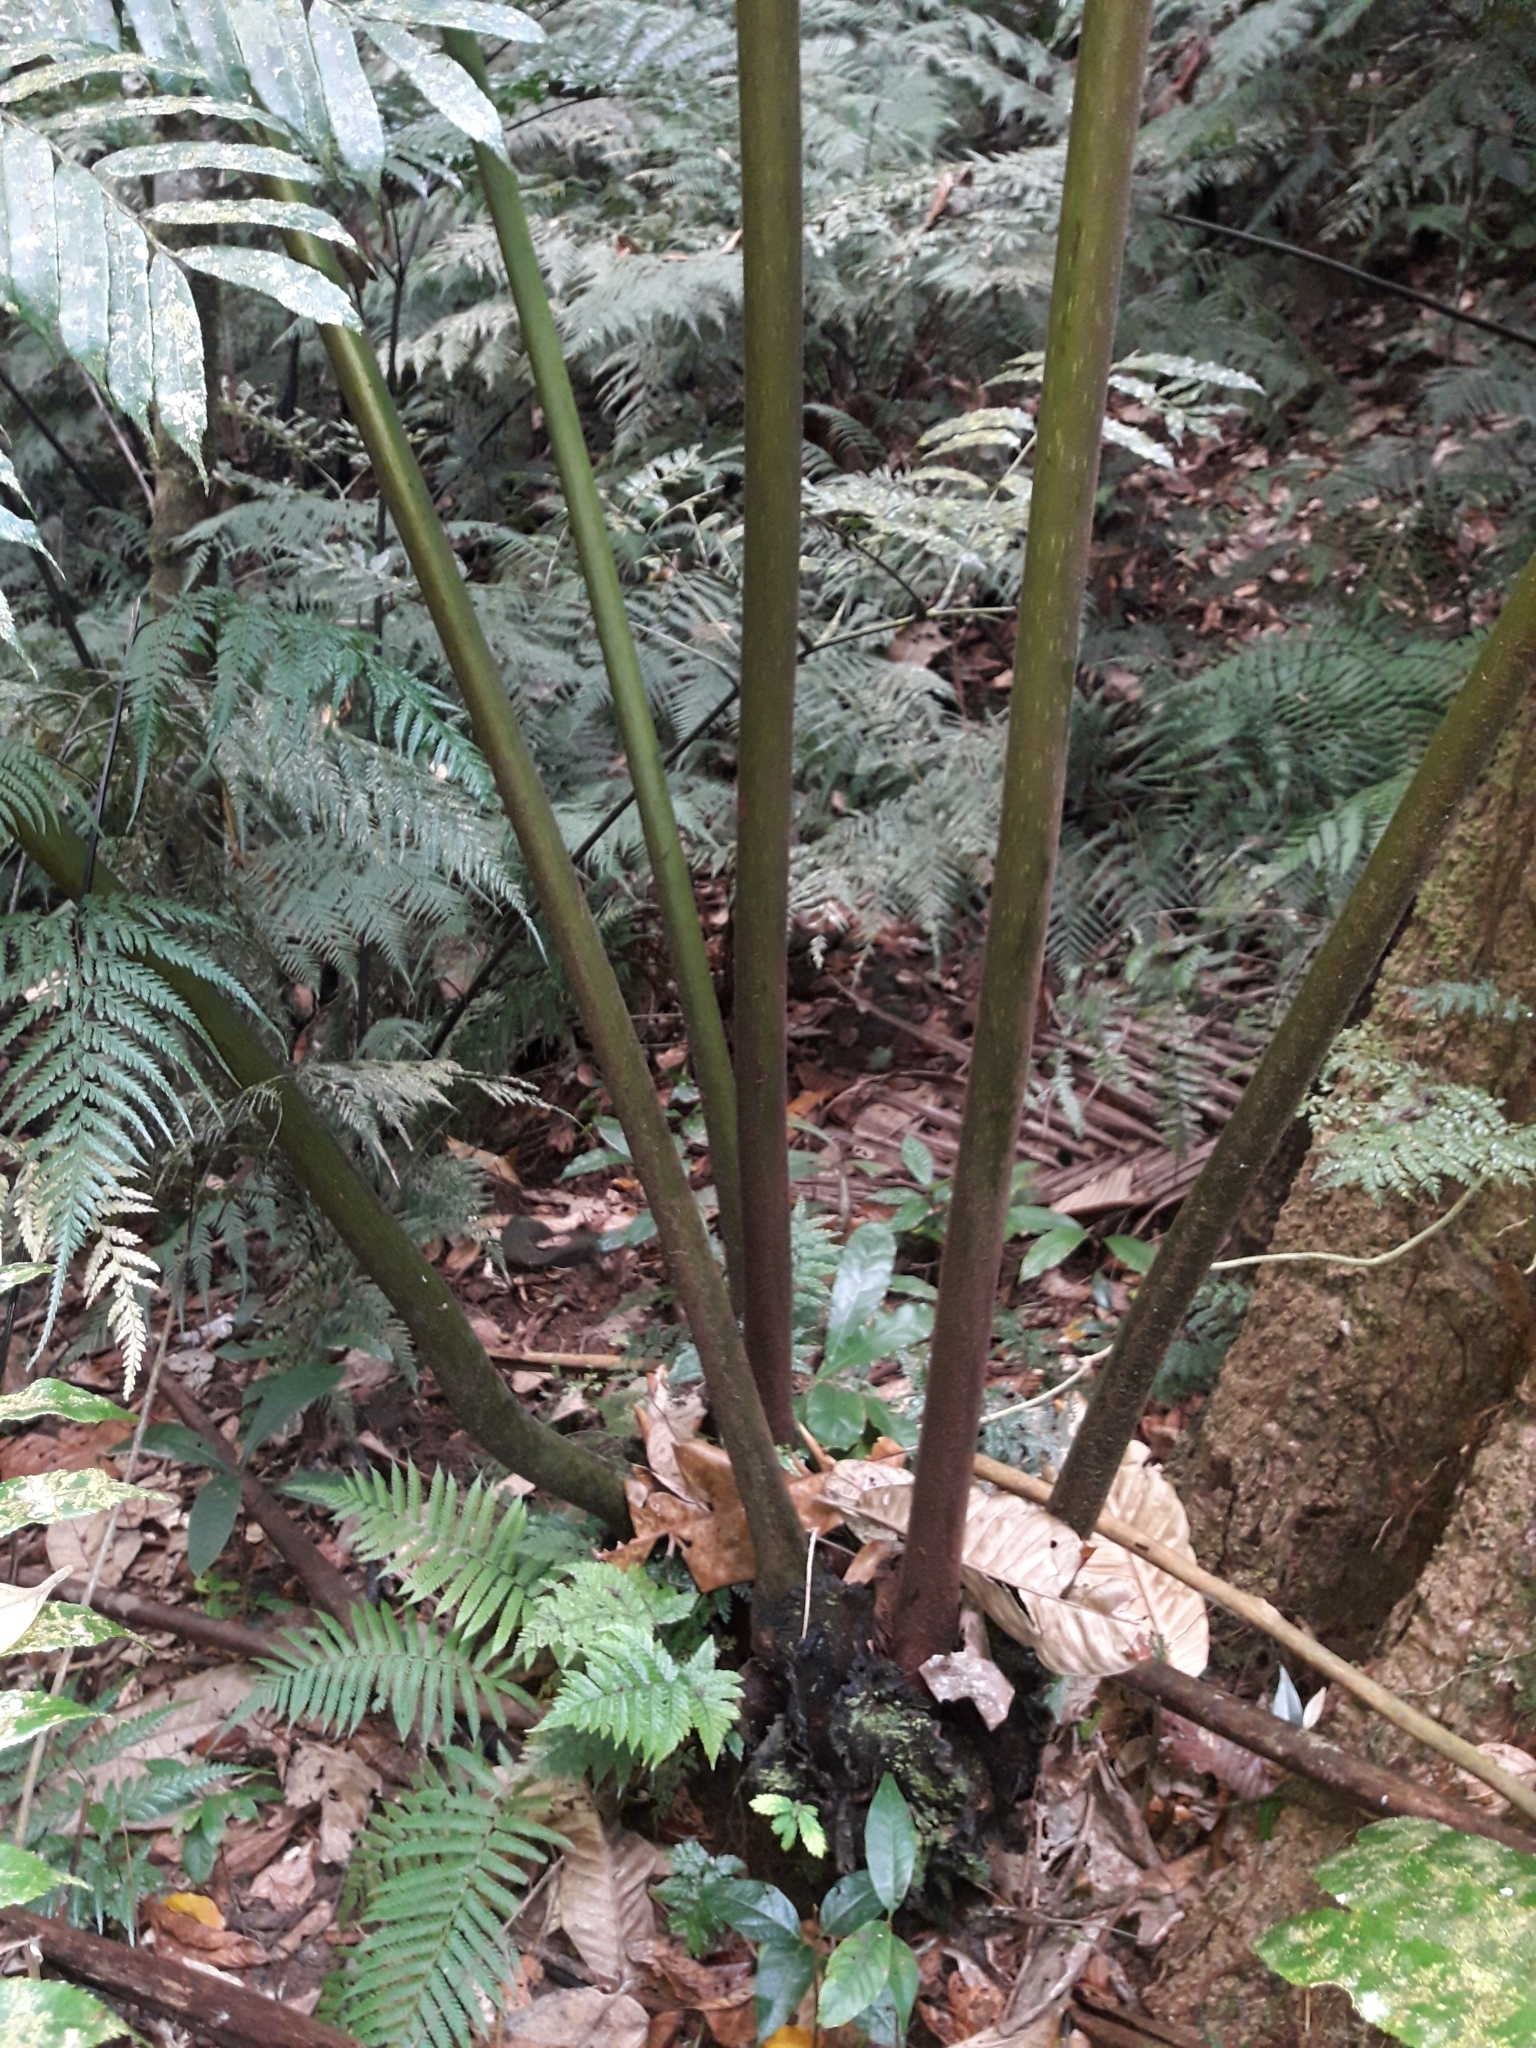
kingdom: Plantae
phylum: Tracheophyta
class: Polypodiopsida
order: Marattiales
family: Marattiaceae
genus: Angiopteris
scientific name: Angiopteris evecta
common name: Mule's-foot fern
